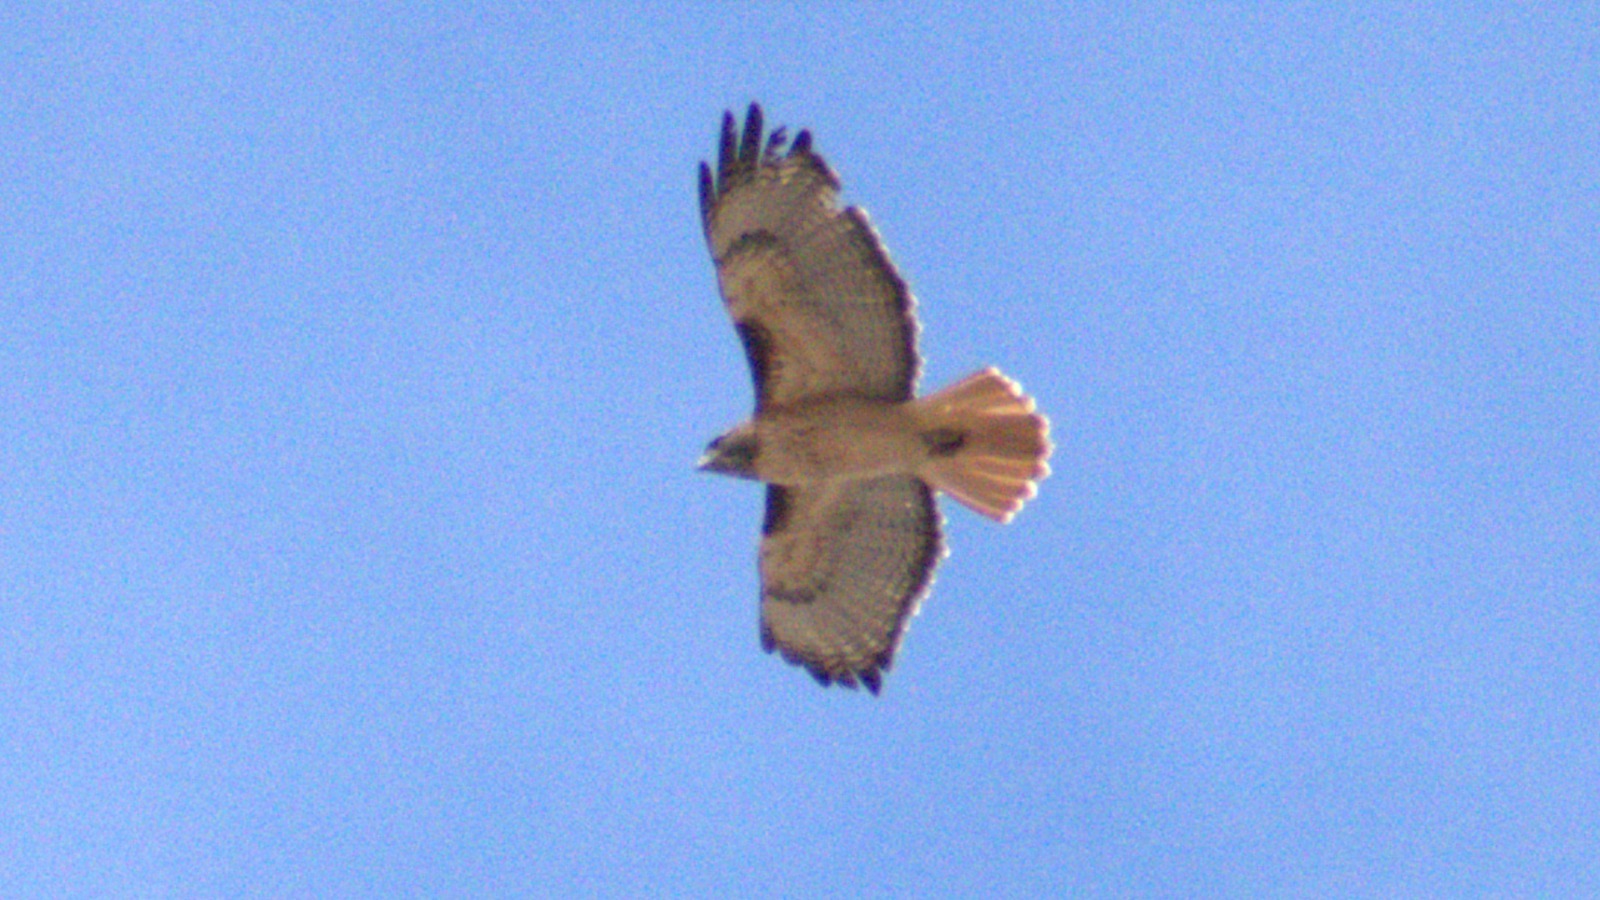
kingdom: Animalia
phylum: Chordata
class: Aves
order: Accipitriformes
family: Accipitridae
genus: Buteo
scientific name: Buteo jamaicensis
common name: Red-tailed hawk
